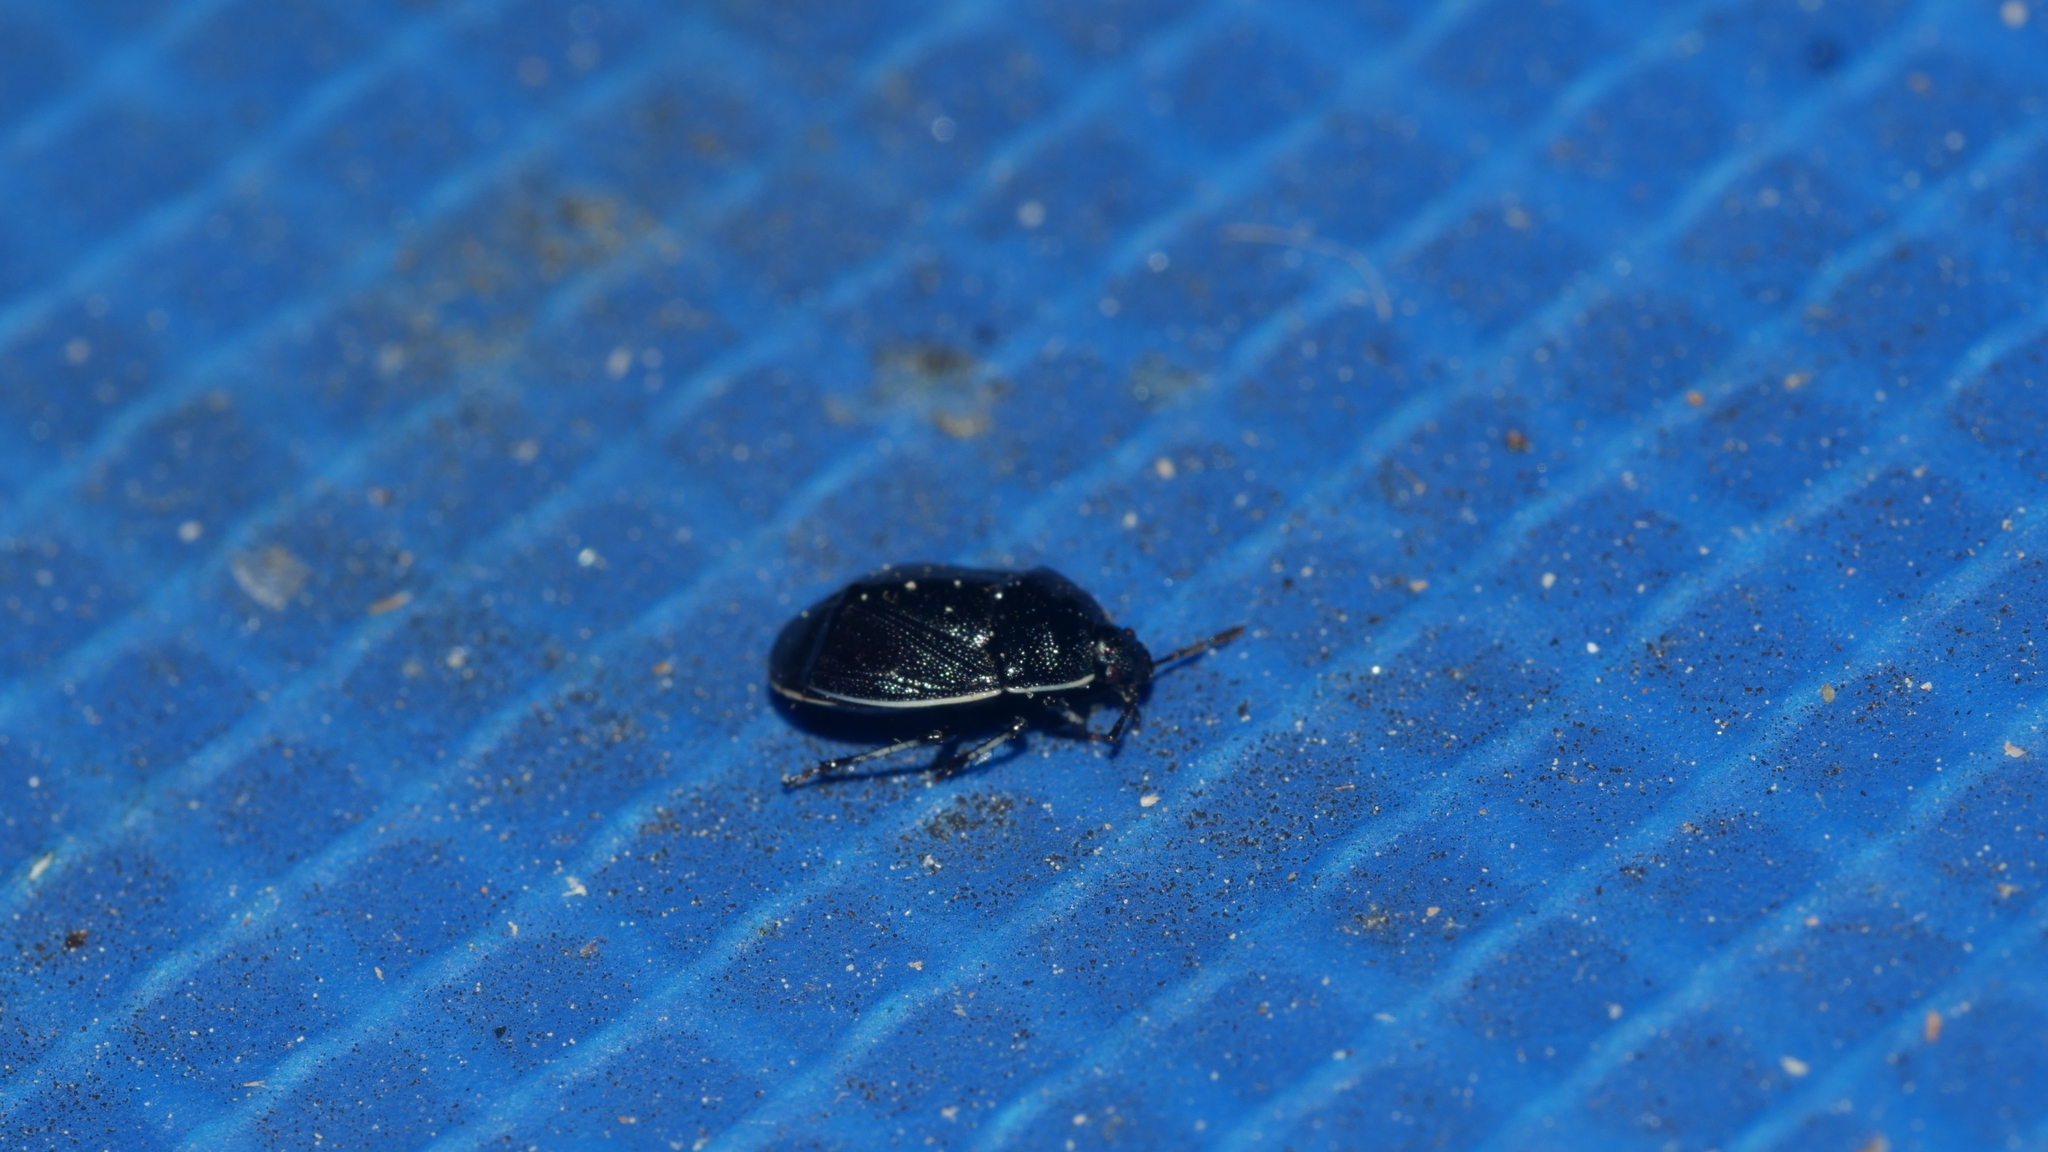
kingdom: Animalia
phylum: Arthropoda
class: Insecta
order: Hemiptera
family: Cydnidae
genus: Sehirus
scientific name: Sehirus cinctus
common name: White-margined burrower bug
